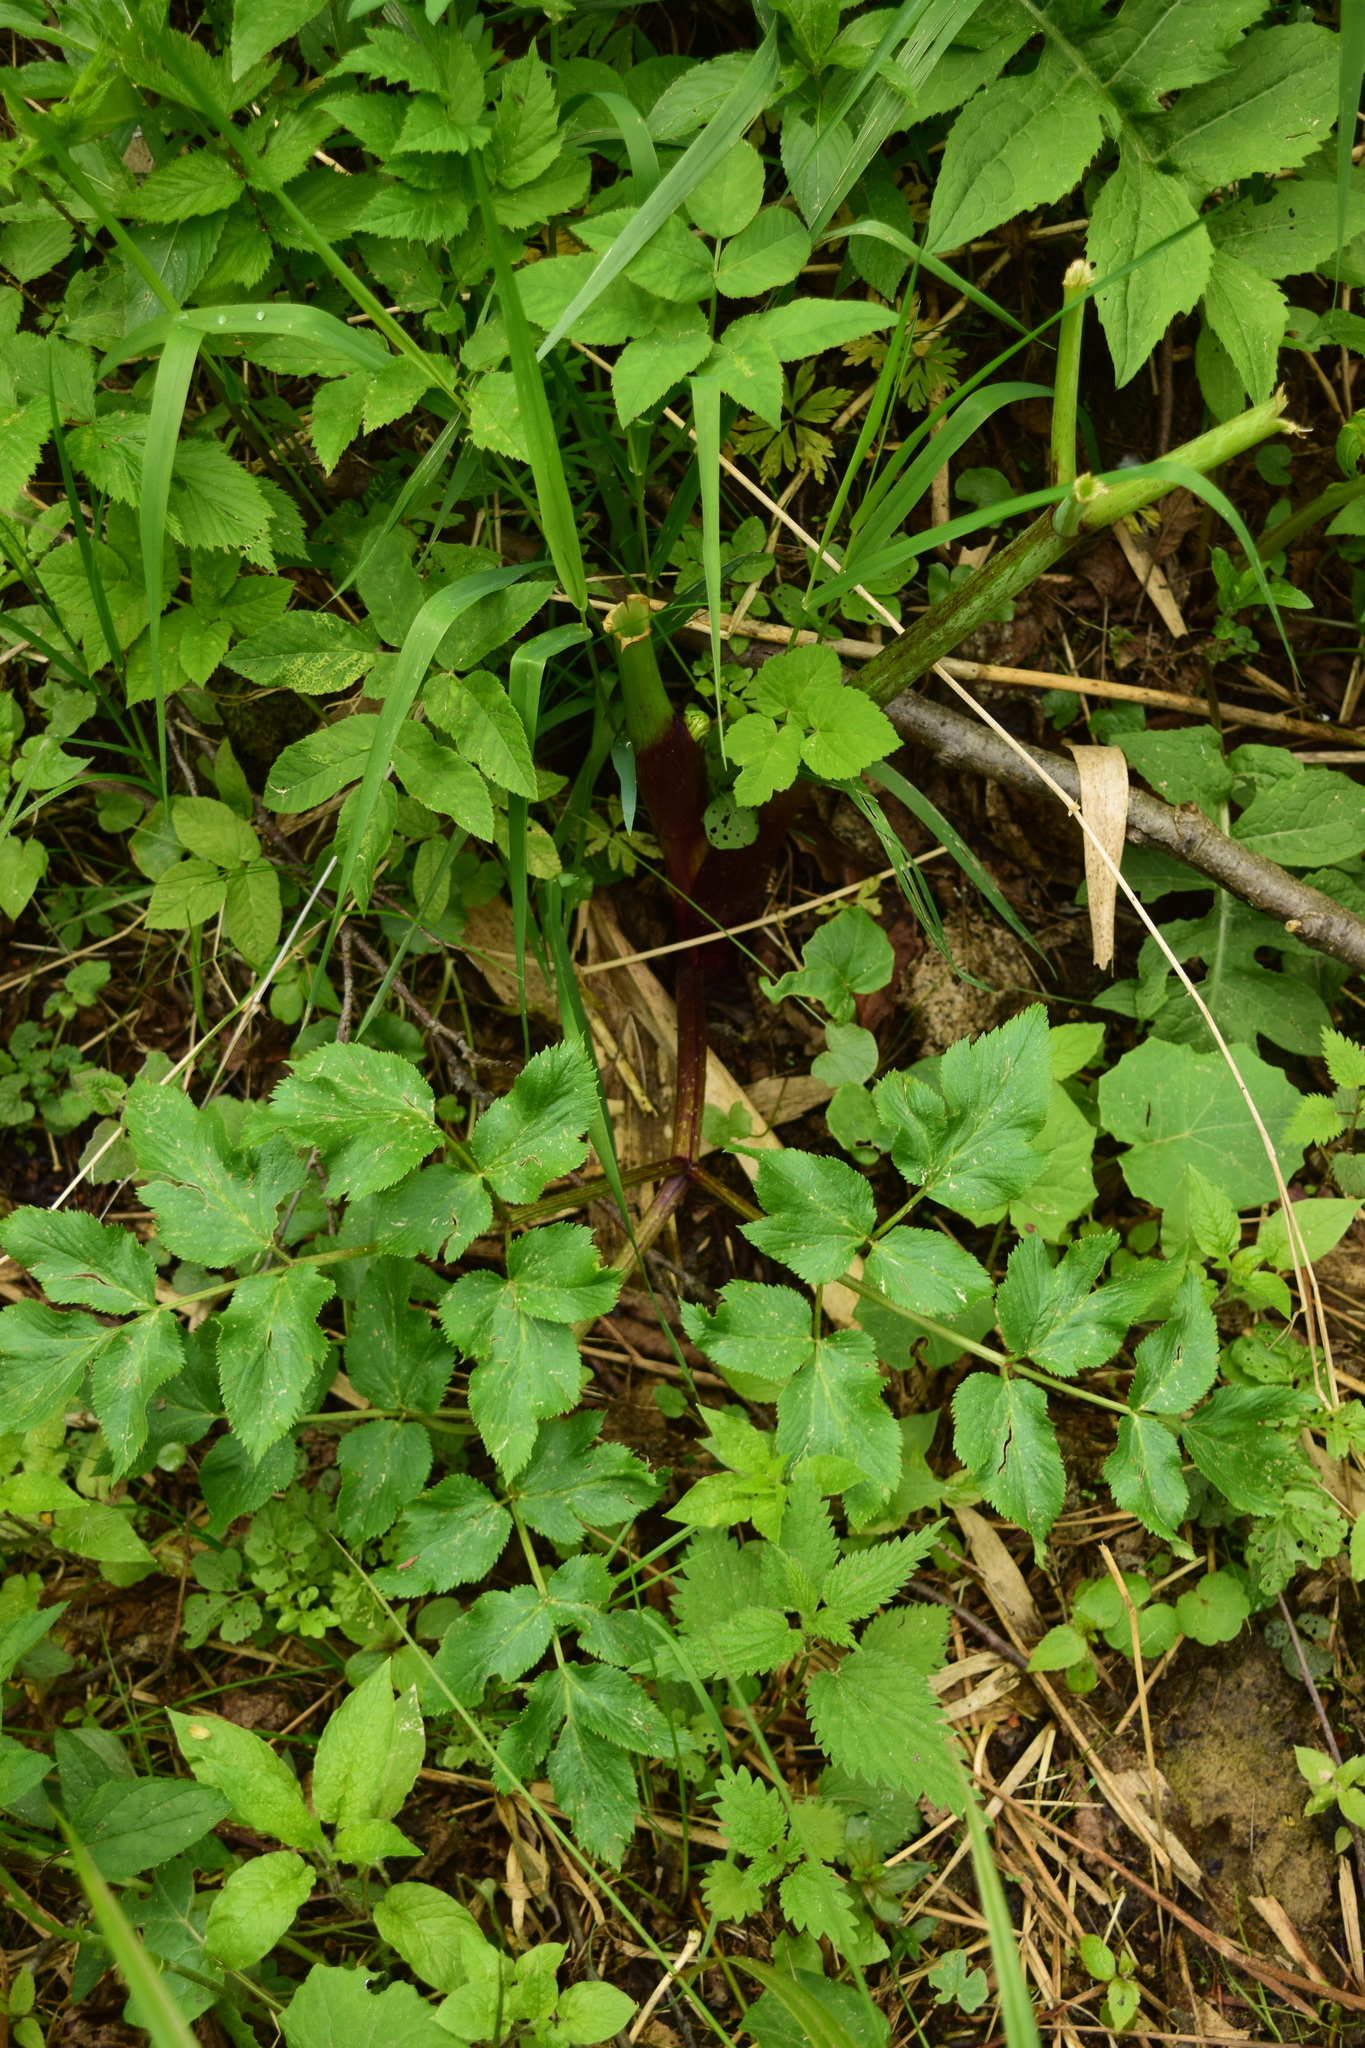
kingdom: Plantae
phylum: Tracheophyta
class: Magnoliopsida
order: Apiales
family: Apiaceae
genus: Angelica
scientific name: Angelica archangelica
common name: Garden angelica
